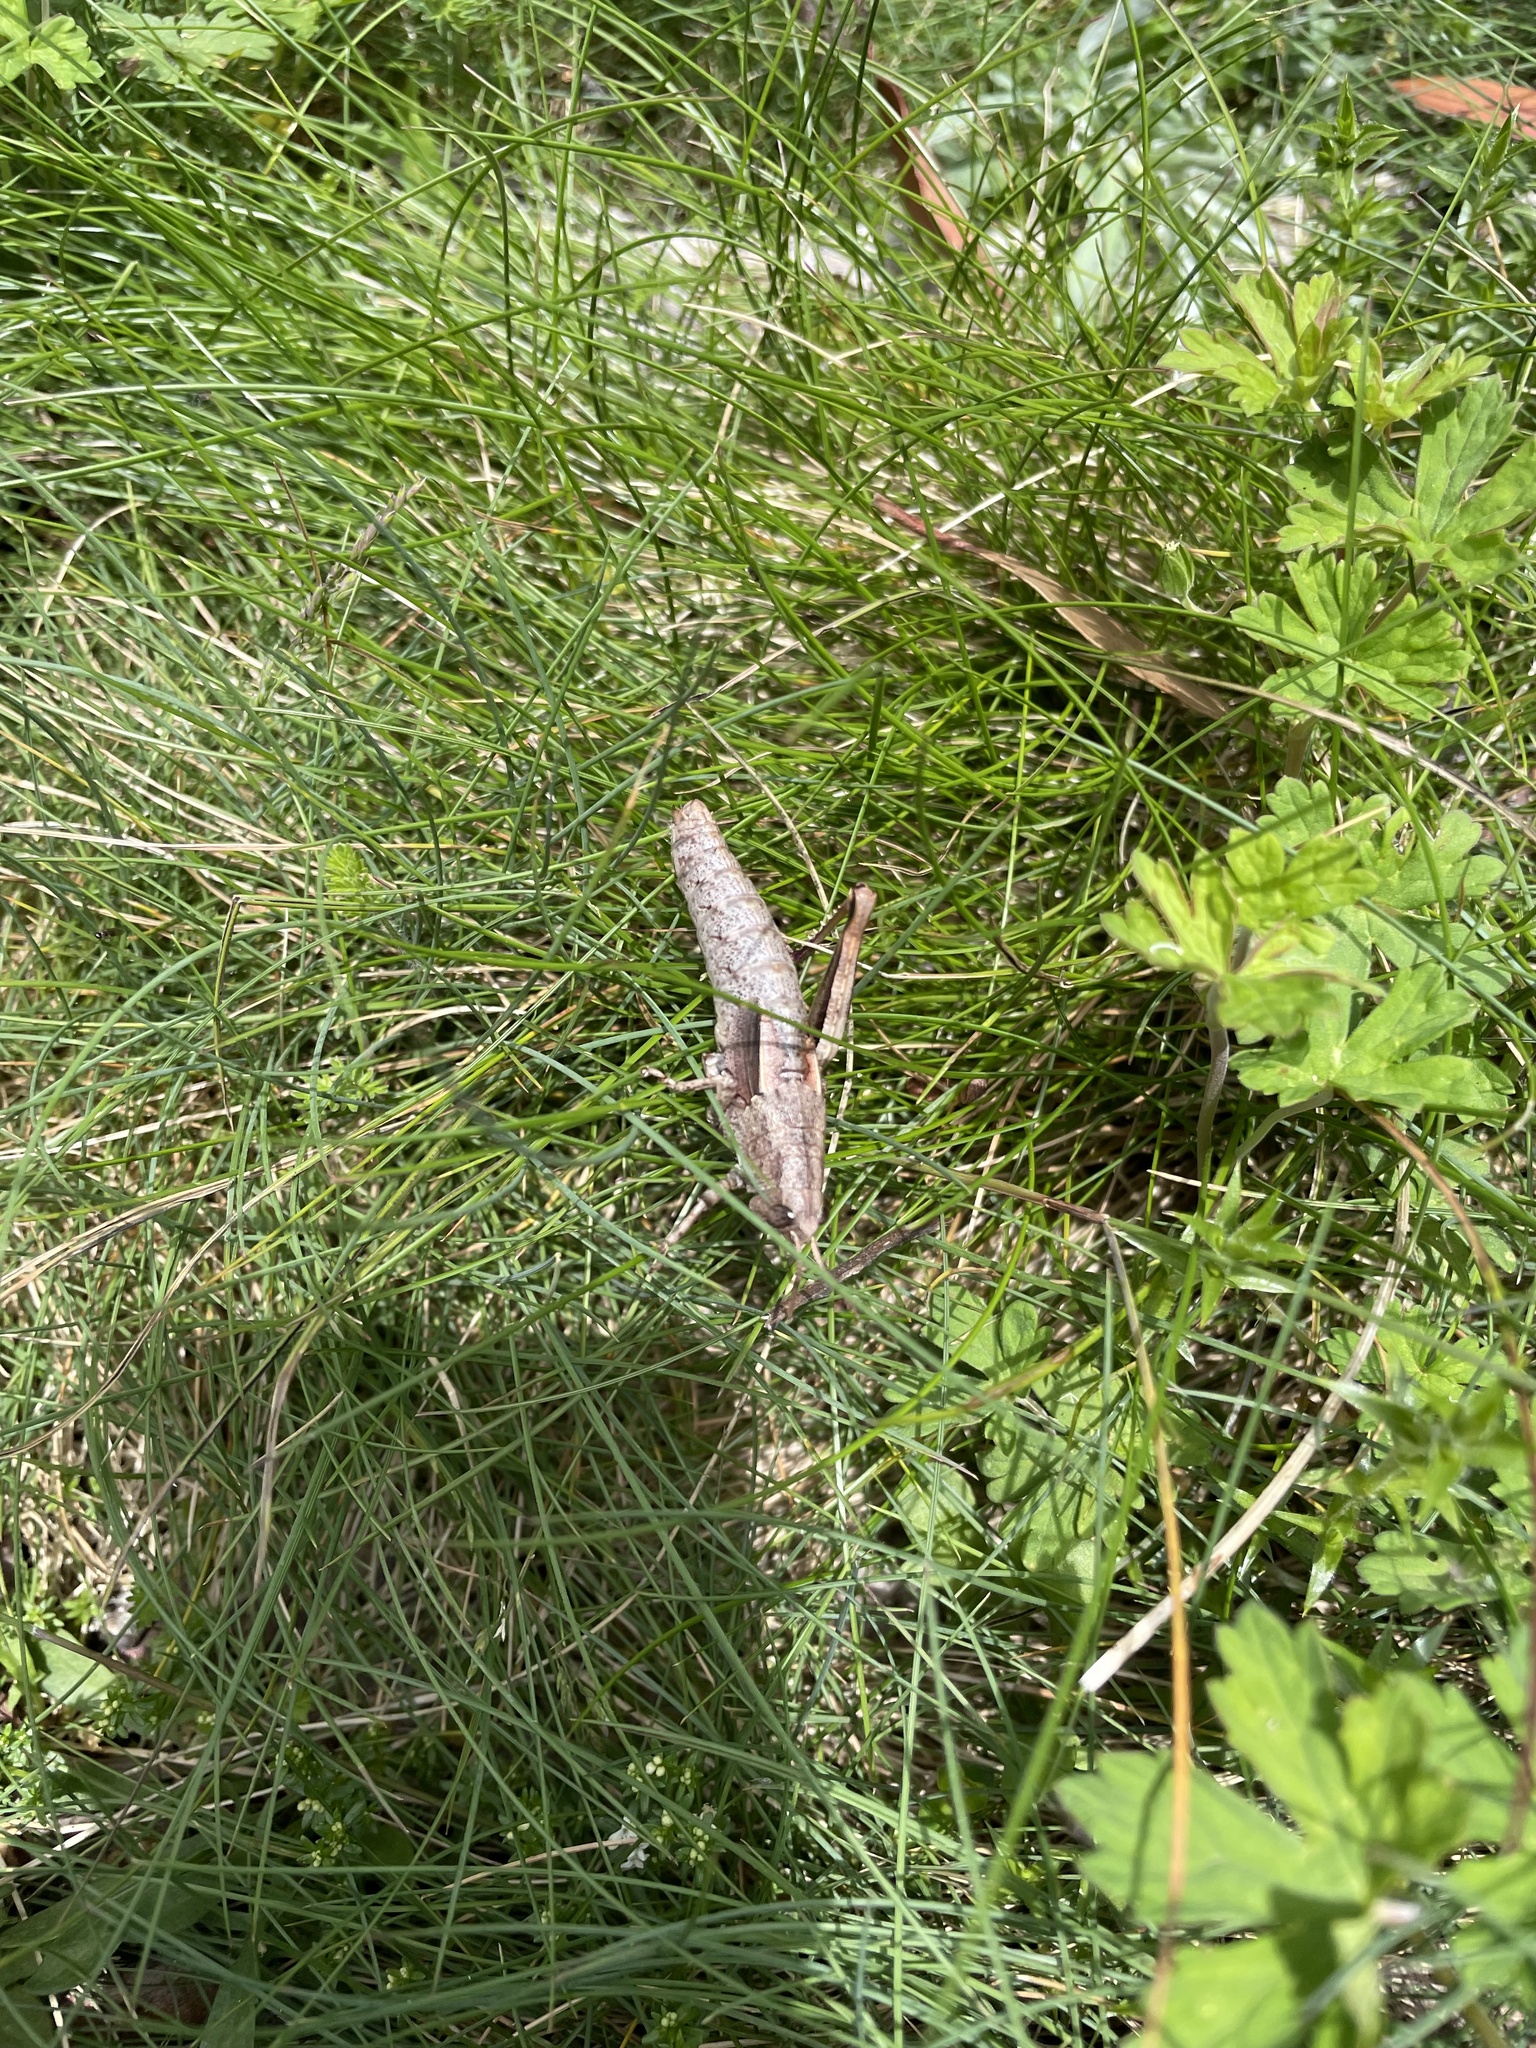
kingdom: Animalia
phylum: Arthropoda
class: Insecta
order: Orthoptera
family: Acrididae
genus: Percassa
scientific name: Percassa rugifrons
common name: Mountain grasshopper
